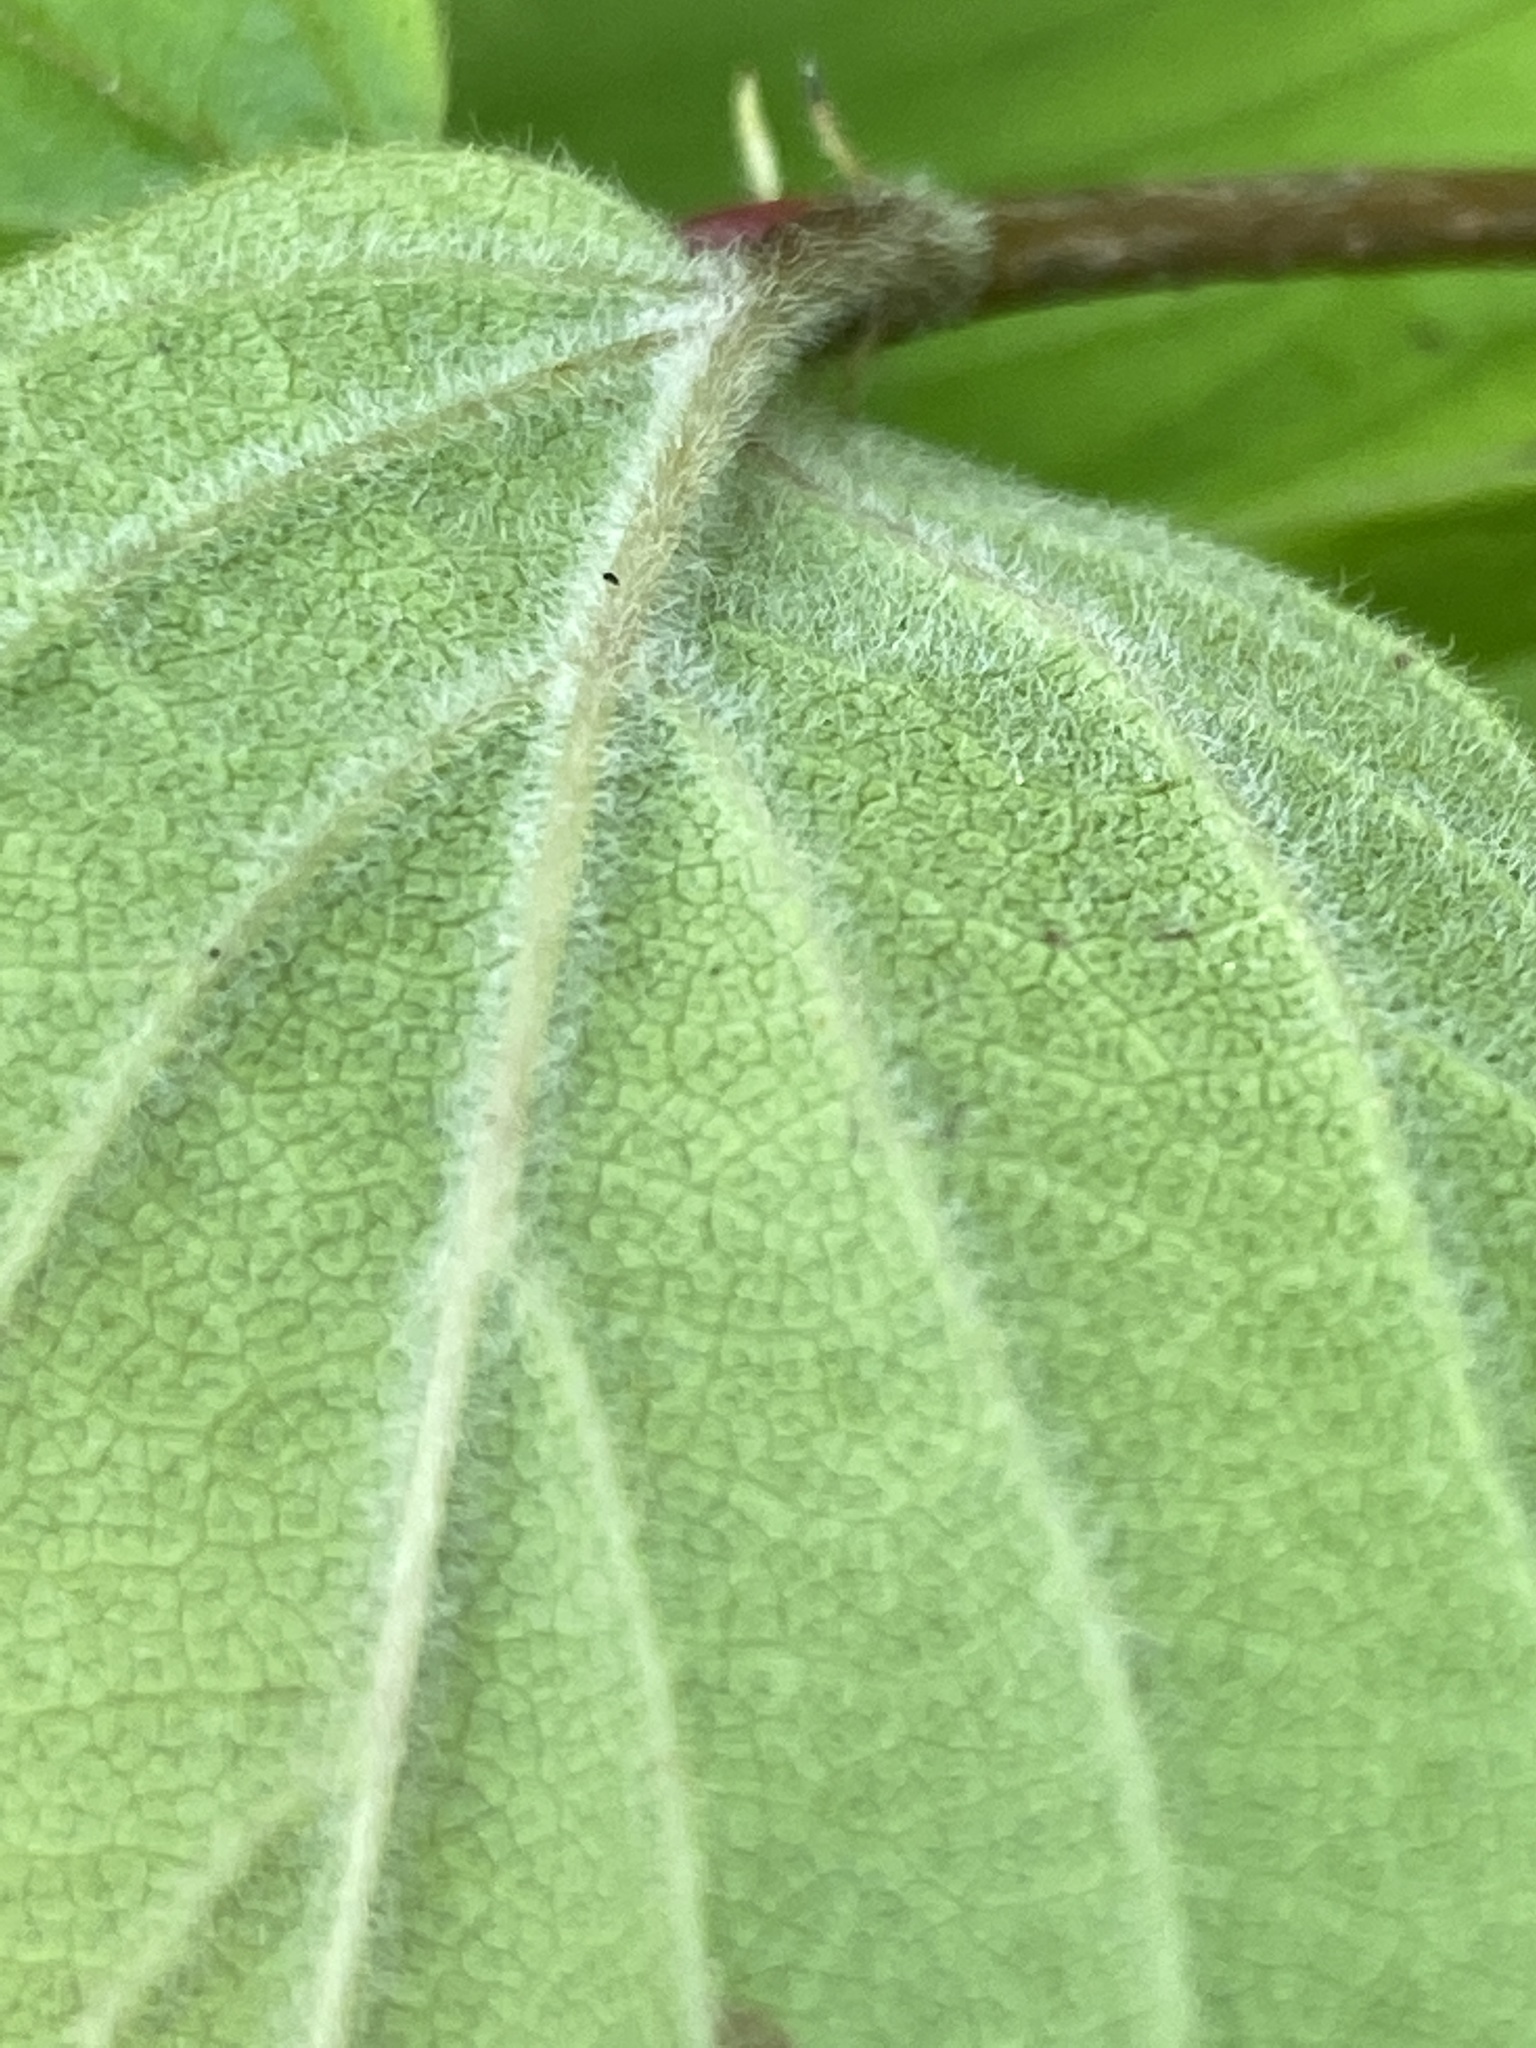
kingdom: Plantae
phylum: Tracheophyta
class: Magnoliopsida
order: Dipsacales
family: Viburnaceae
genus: Viburnum
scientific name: Viburnum rafinesqueanum
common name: Downy arrow-wood
